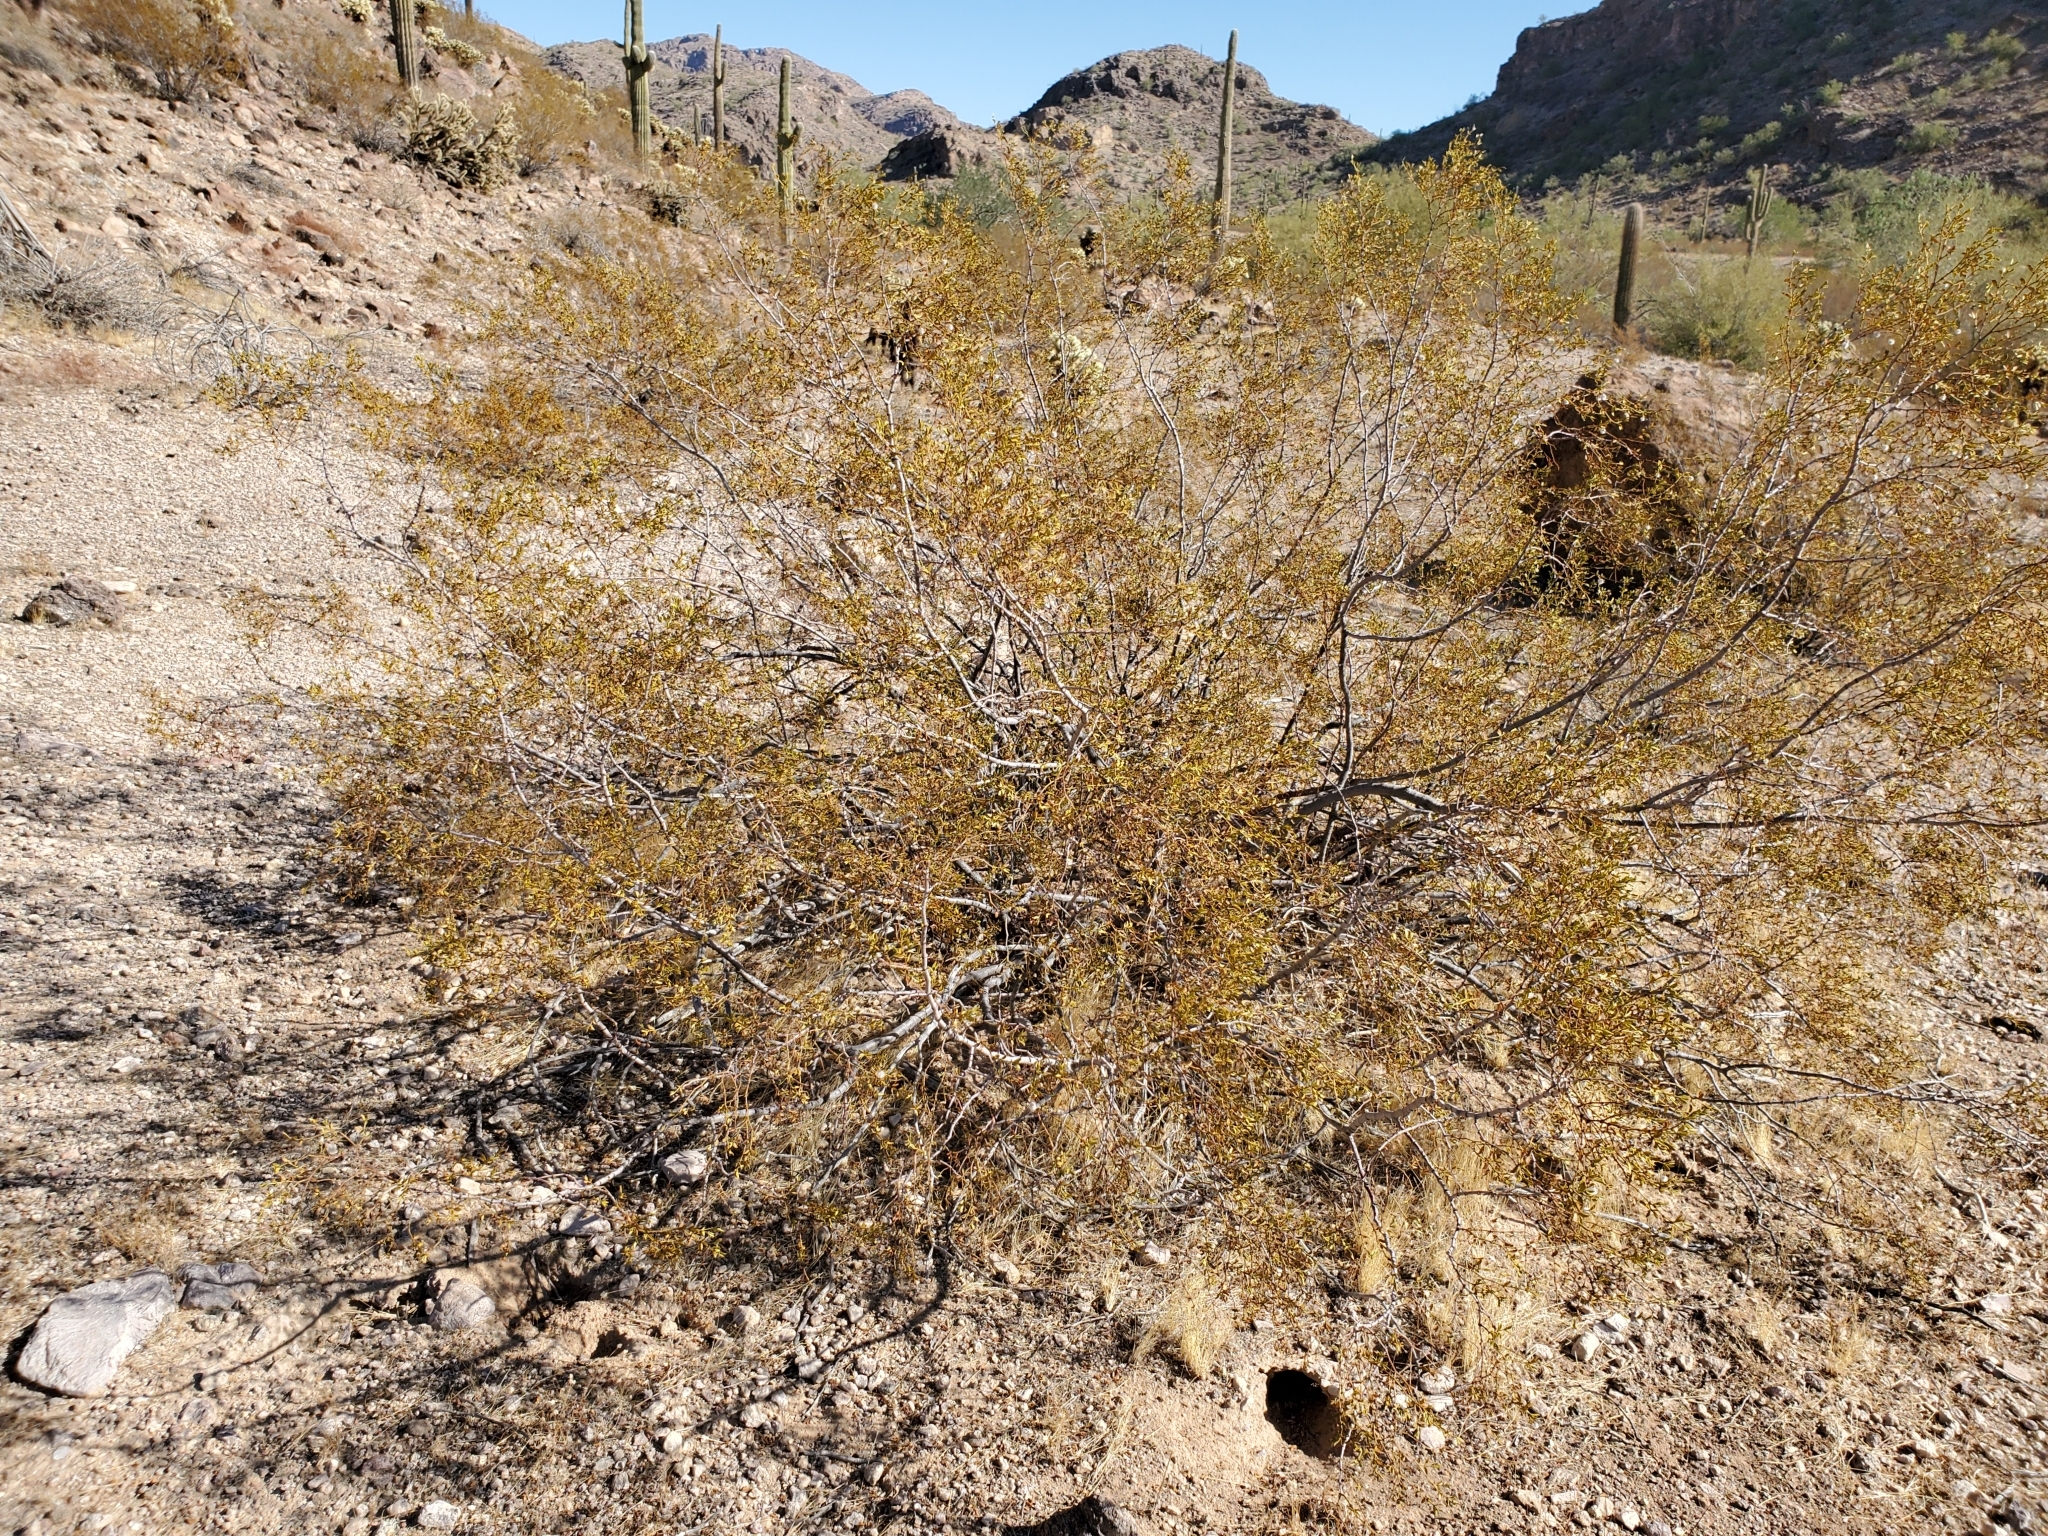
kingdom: Plantae
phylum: Tracheophyta
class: Magnoliopsida
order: Zygophyllales
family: Zygophyllaceae
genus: Larrea
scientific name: Larrea tridentata
